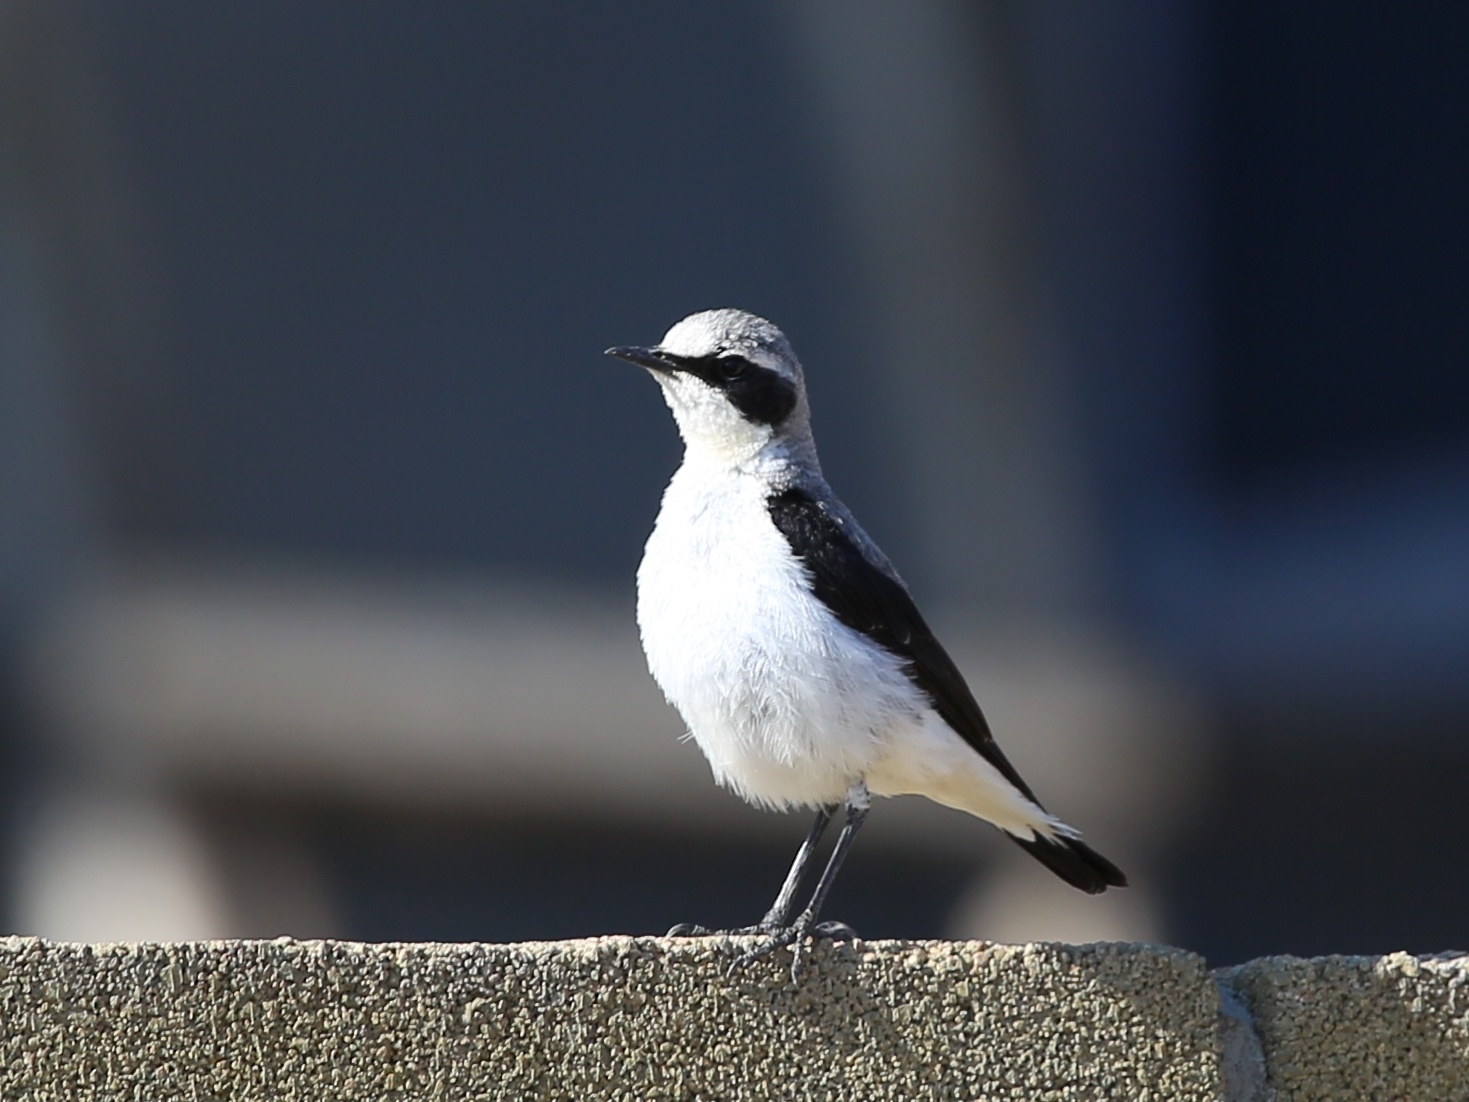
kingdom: Animalia
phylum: Chordata
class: Aves
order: Passeriformes
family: Muscicapidae
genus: Oenanthe
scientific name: Oenanthe oenanthe
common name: Northern wheatear
